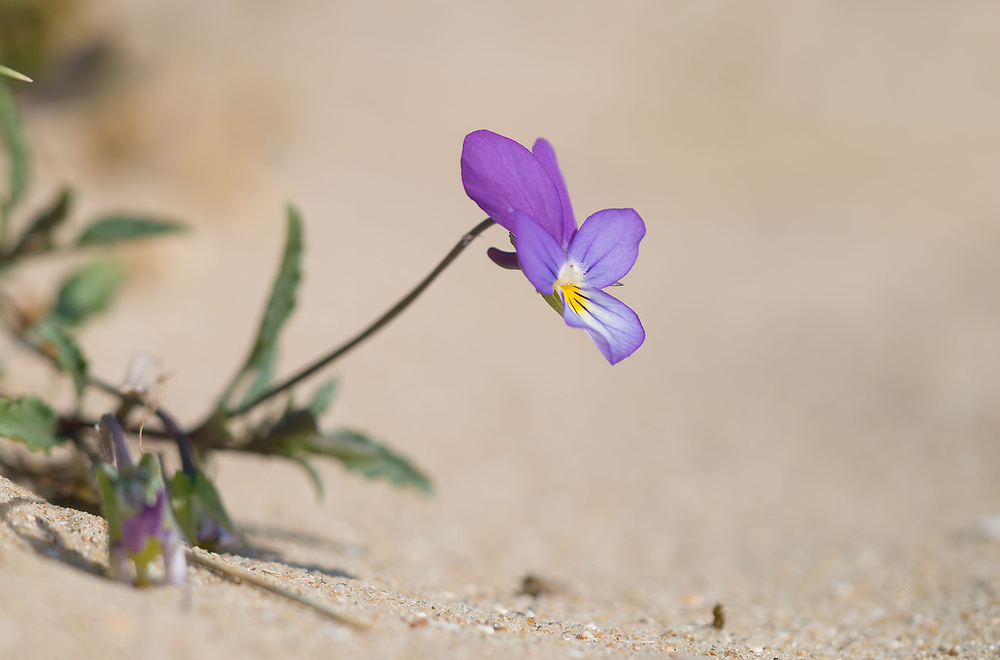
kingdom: Plantae
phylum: Tracheophyta
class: Magnoliopsida
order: Malpighiales
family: Violaceae
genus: Viola
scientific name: Viola tricolor
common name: Pansy
